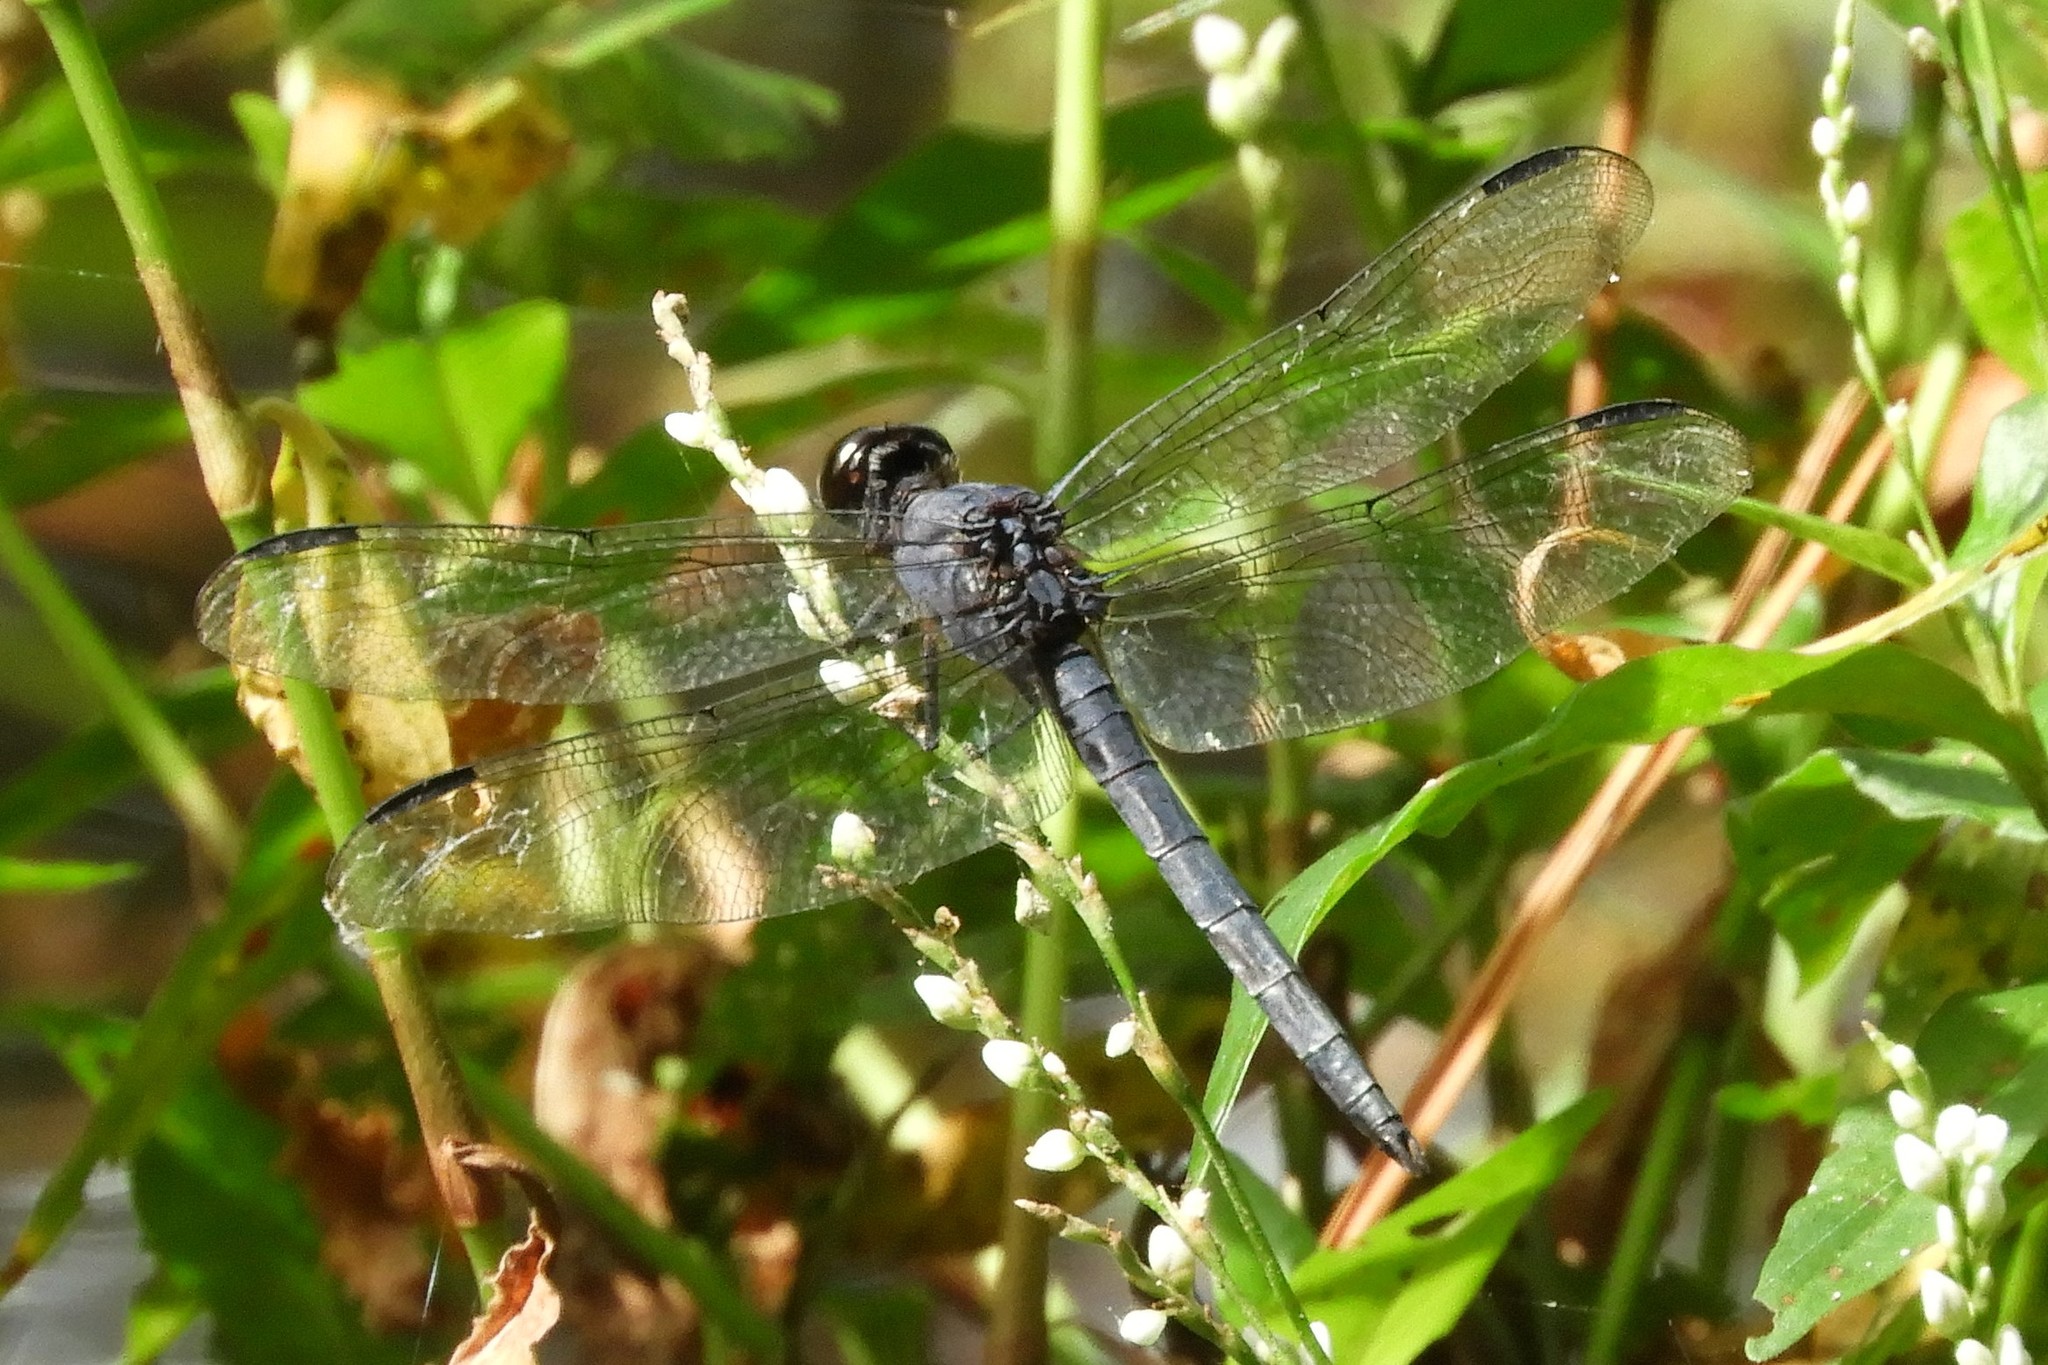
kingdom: Animalia
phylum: Arthropoda
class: Insecta
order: Odonata
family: Libellulidae
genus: Libellula
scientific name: Libellula incesta
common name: Slaty skimmer
